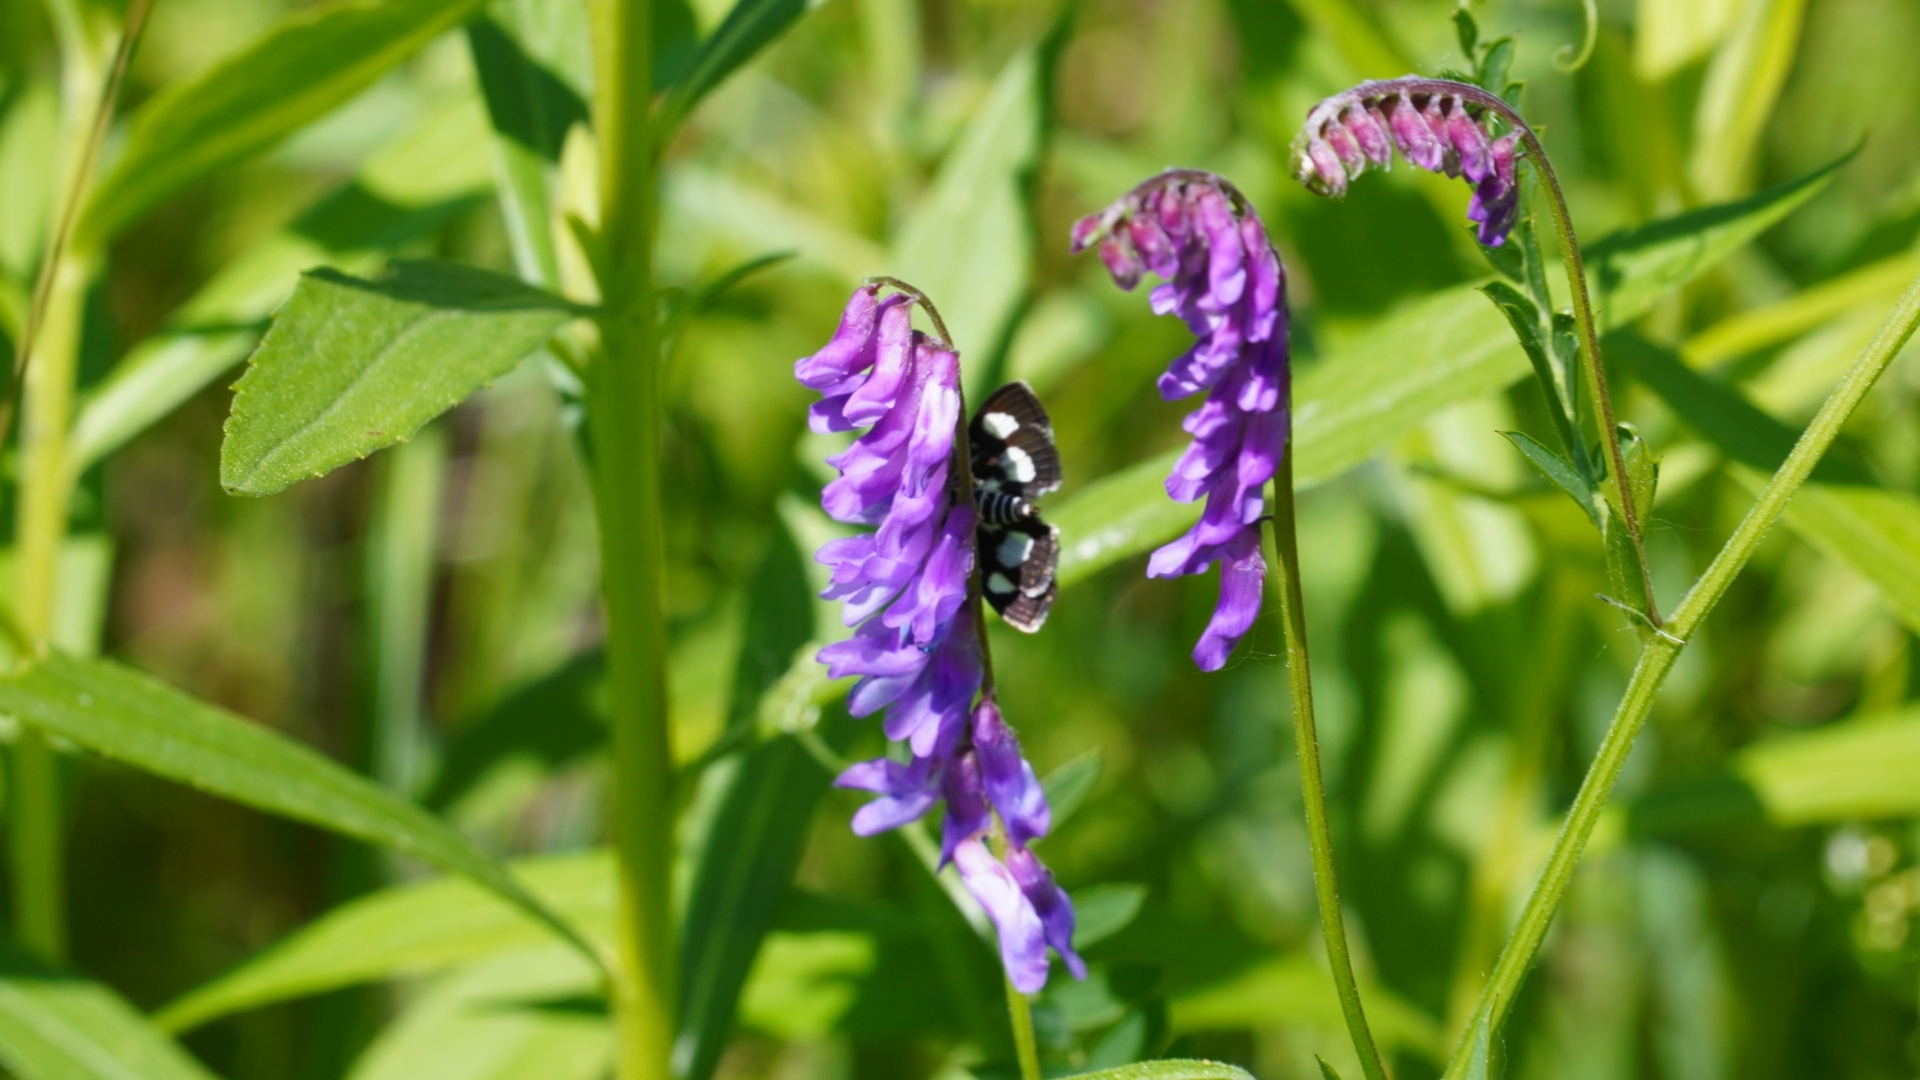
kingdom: Plantae
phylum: Tracheophyta
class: Magnoliopsida
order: Fabales
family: Fabaceae
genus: Vicia
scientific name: Vicia cracca
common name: Bird vetch
